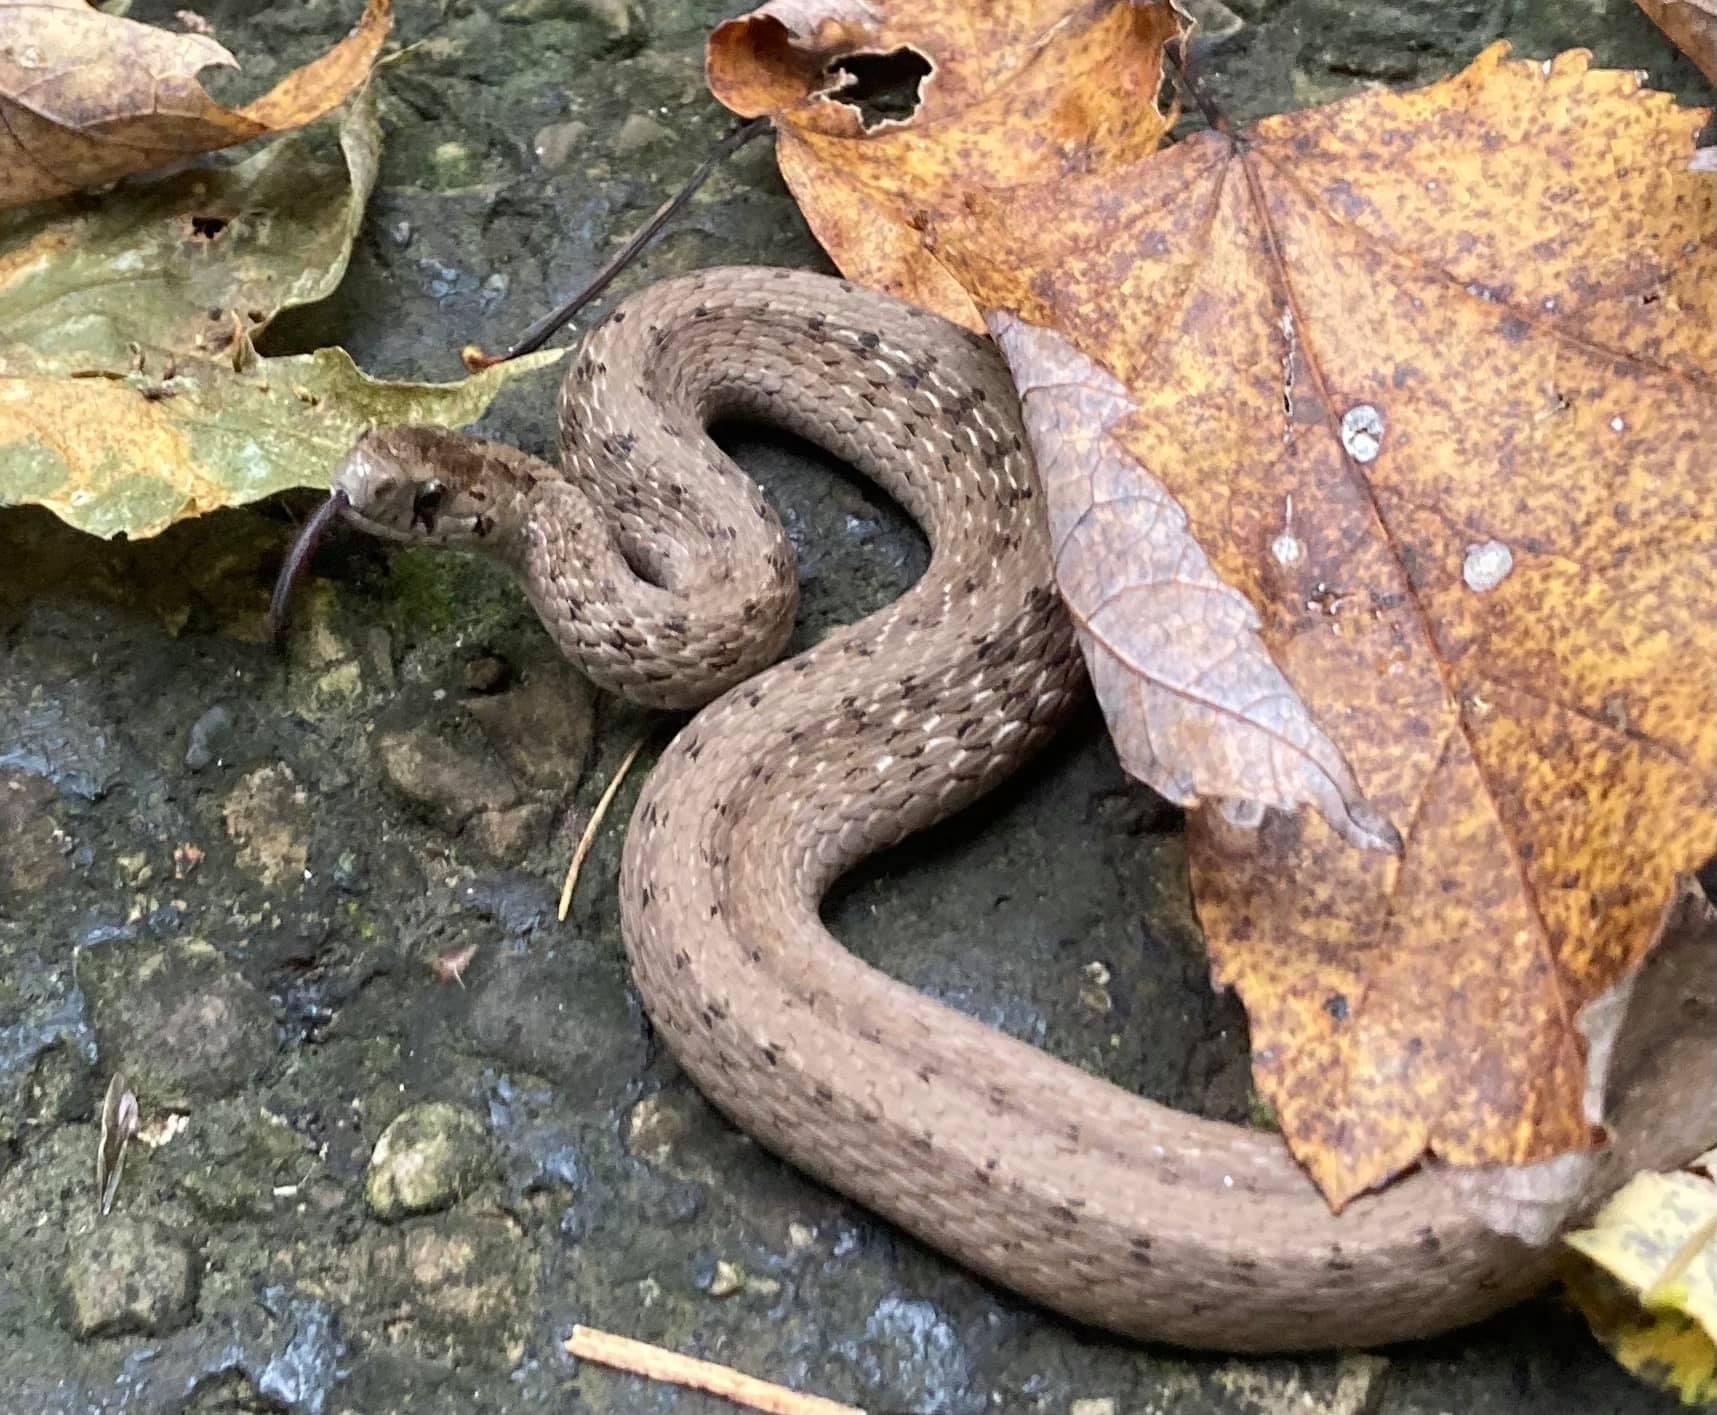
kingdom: Animalia
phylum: Chordata
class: Squamata
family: Colubridae
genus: Storeria
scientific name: Storeria dekayi
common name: (dekay’s) brown snake
